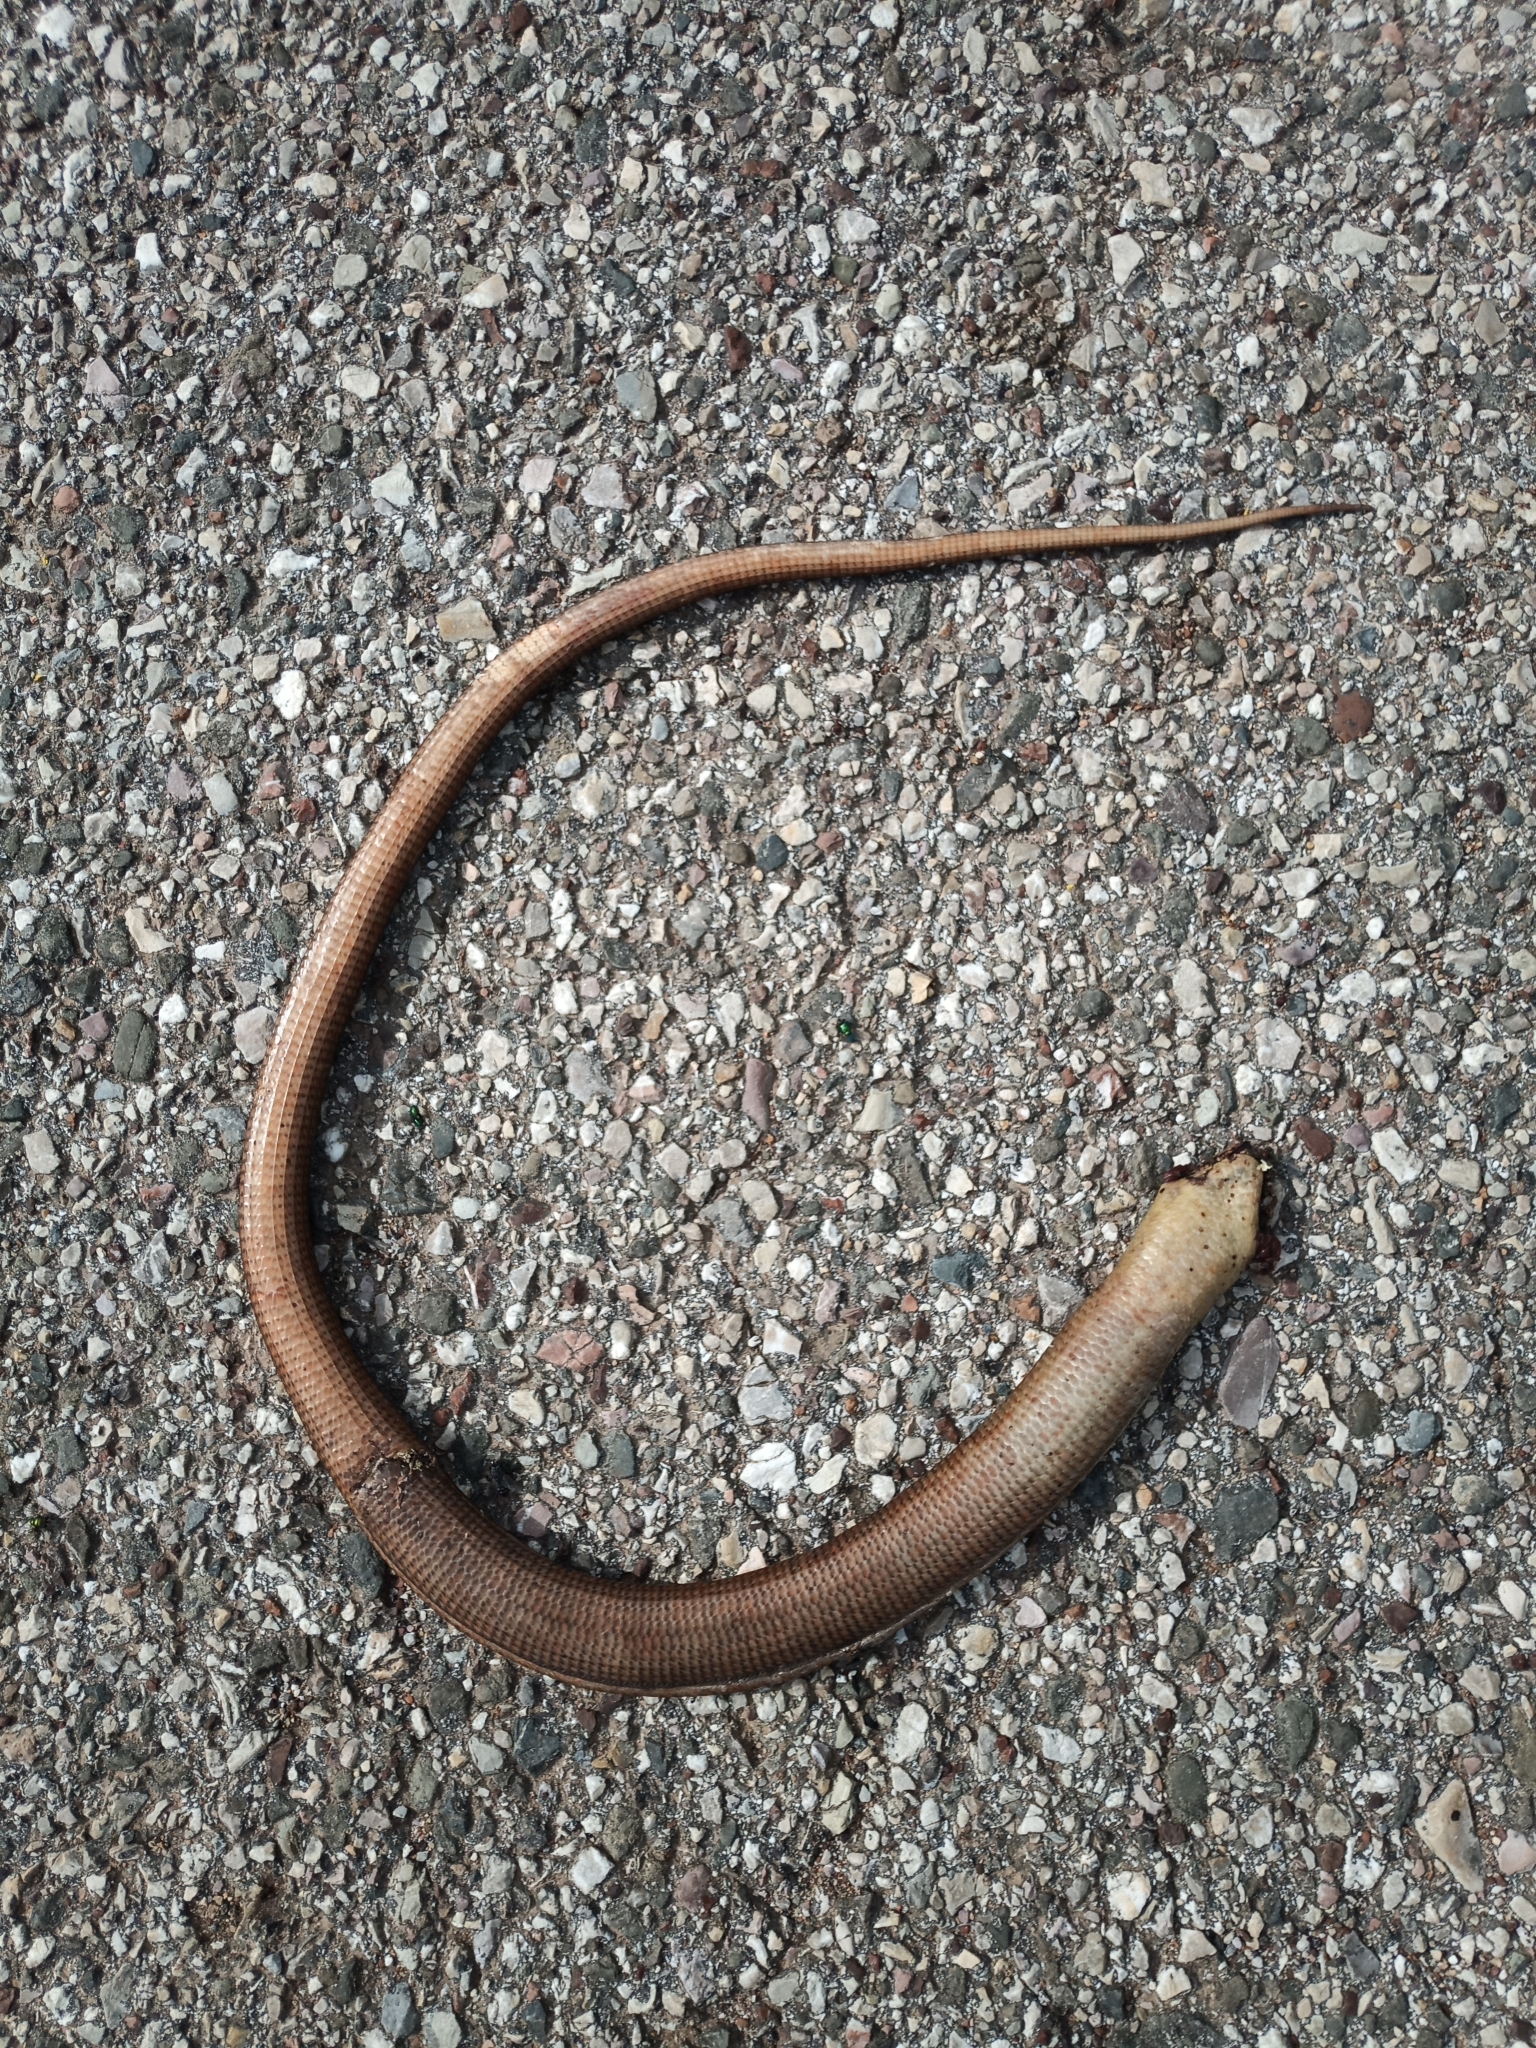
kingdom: Animalia
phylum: Chordata
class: Squamata
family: Anguidae
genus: Pseudopus
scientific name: Pseudopus apodus
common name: European glass lizard
